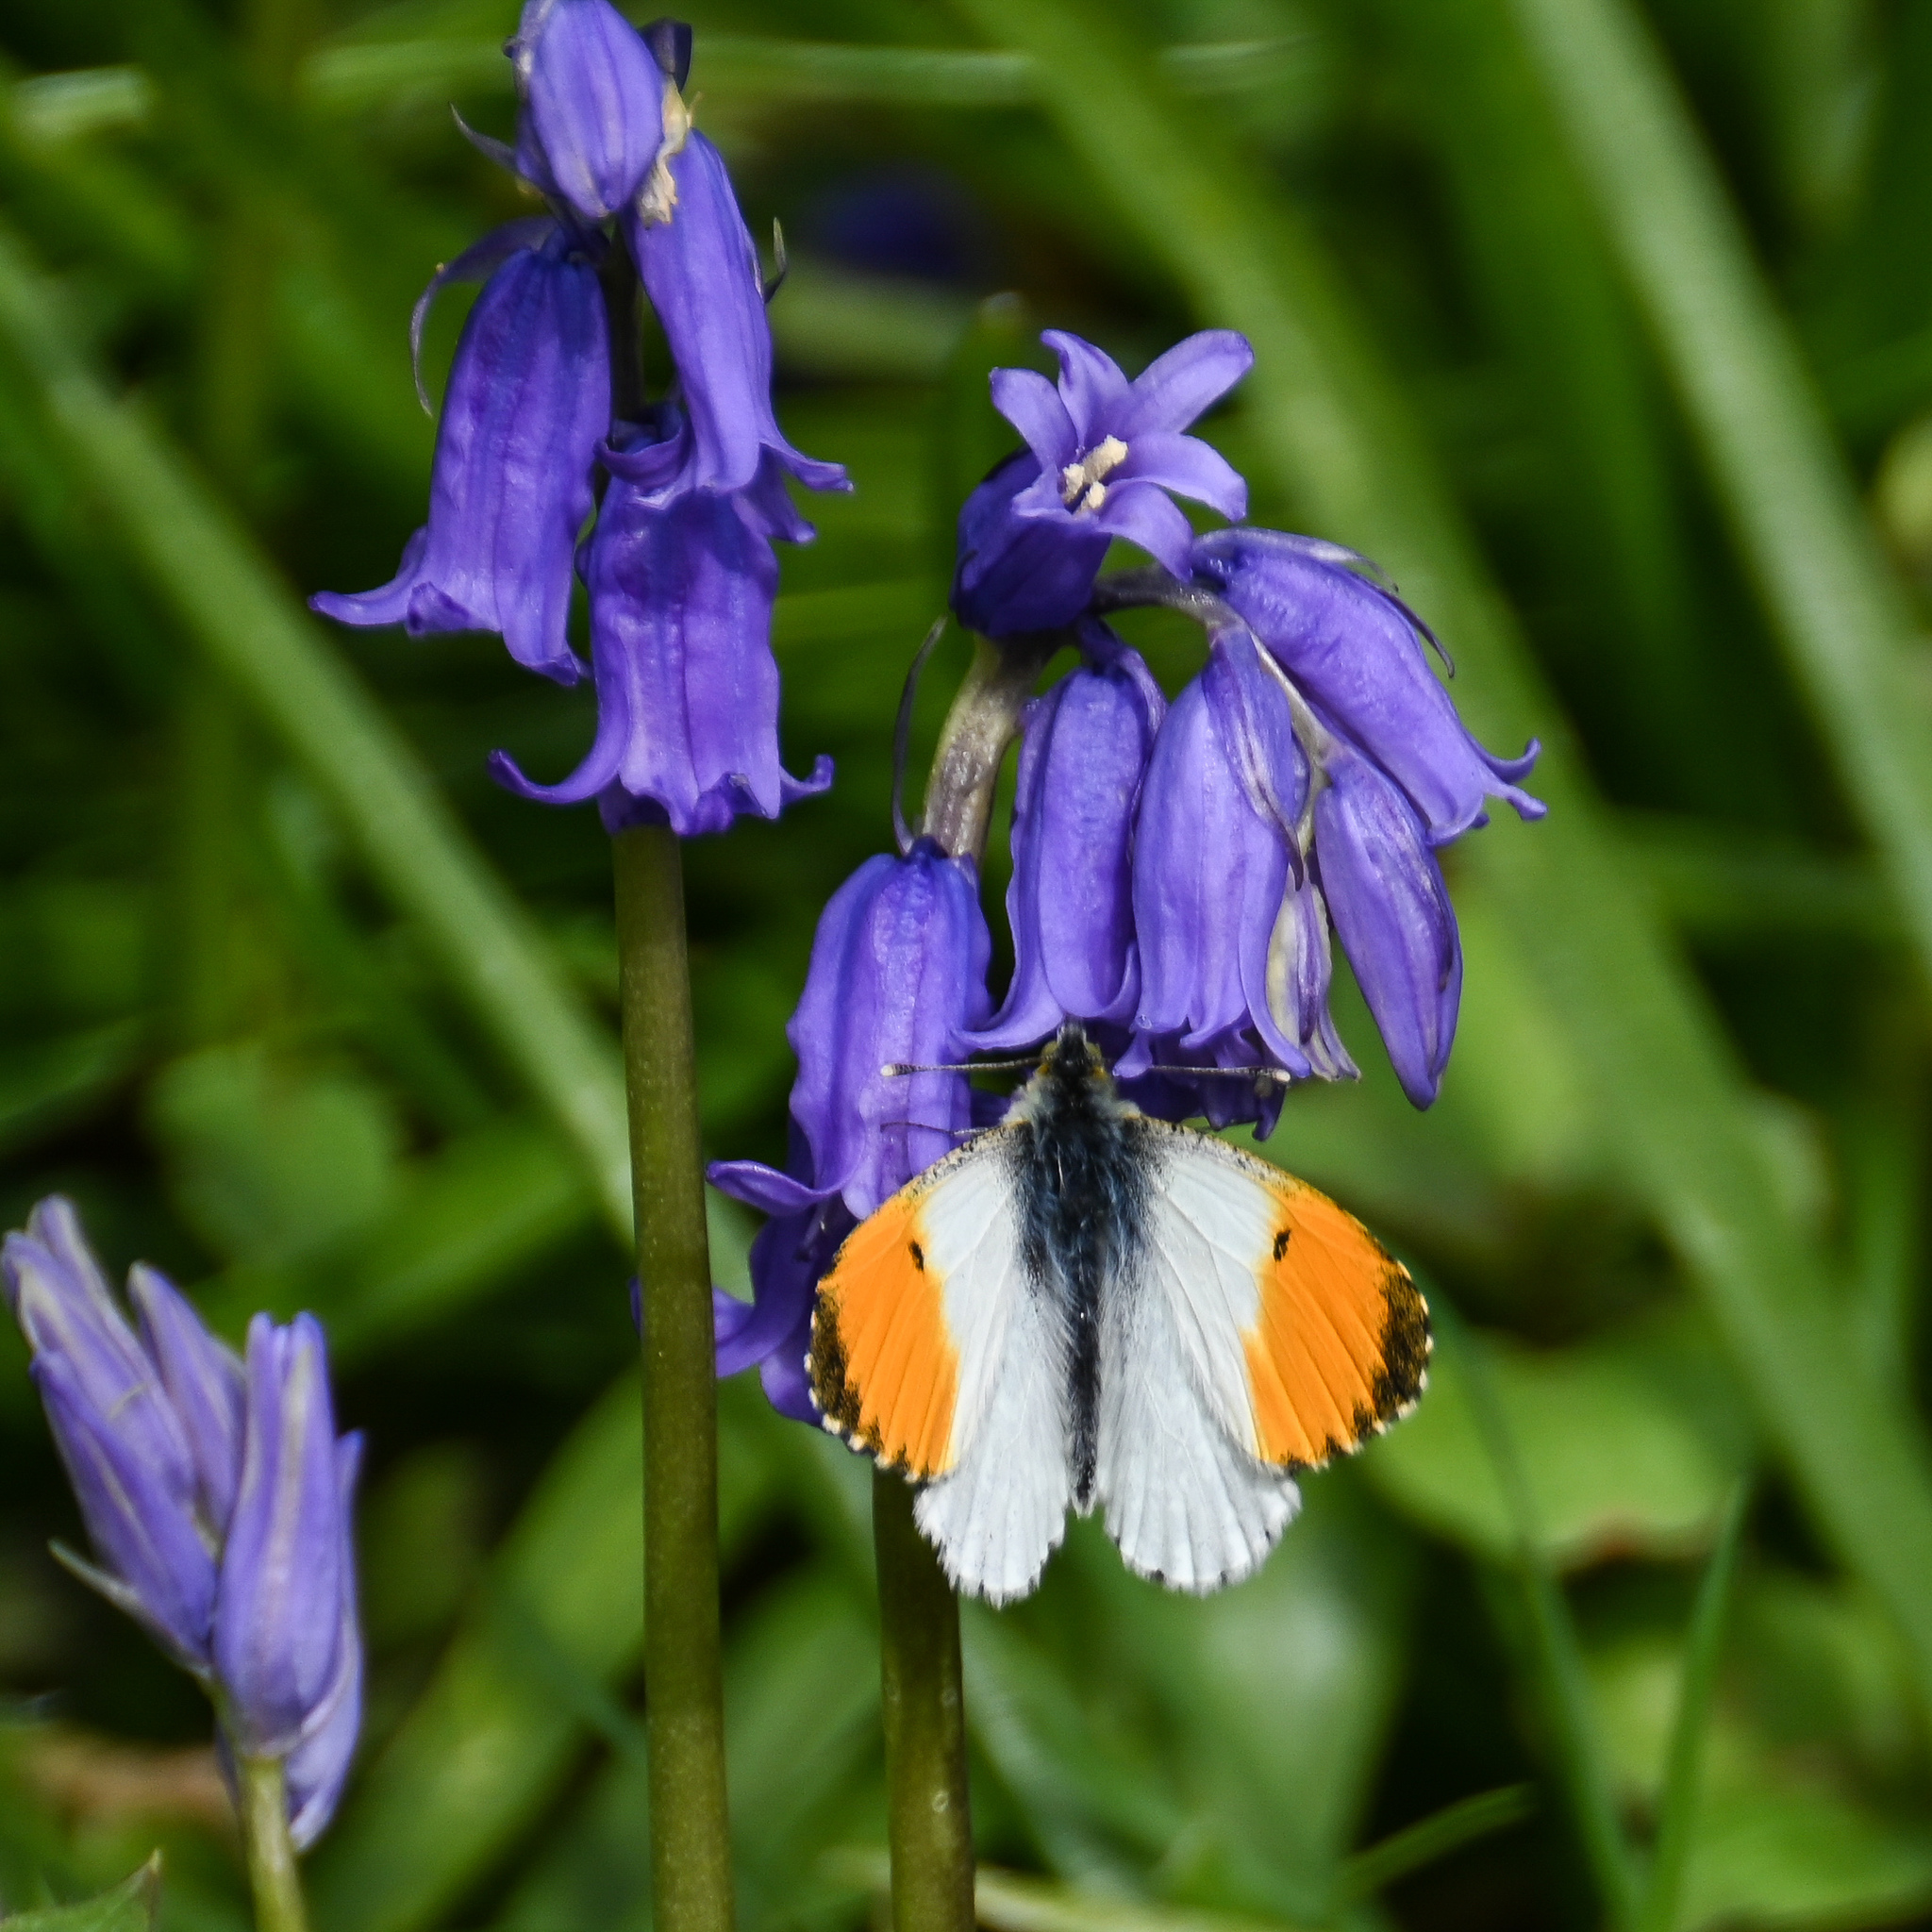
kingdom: Animalia
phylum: Arthropoda
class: Insecta
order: Lepidoptera
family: Pieridae
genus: Anthocharis
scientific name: Anthocharis cardamines
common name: Orange-tip
